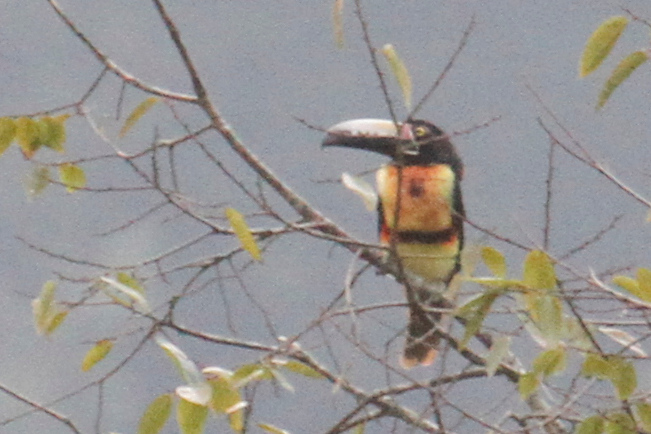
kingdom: Animalia
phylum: Chordata
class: Aves
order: Piciformes
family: Ramphastidae
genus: Pteroglossus
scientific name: Pteroglossus torquatus
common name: Collared aracari
